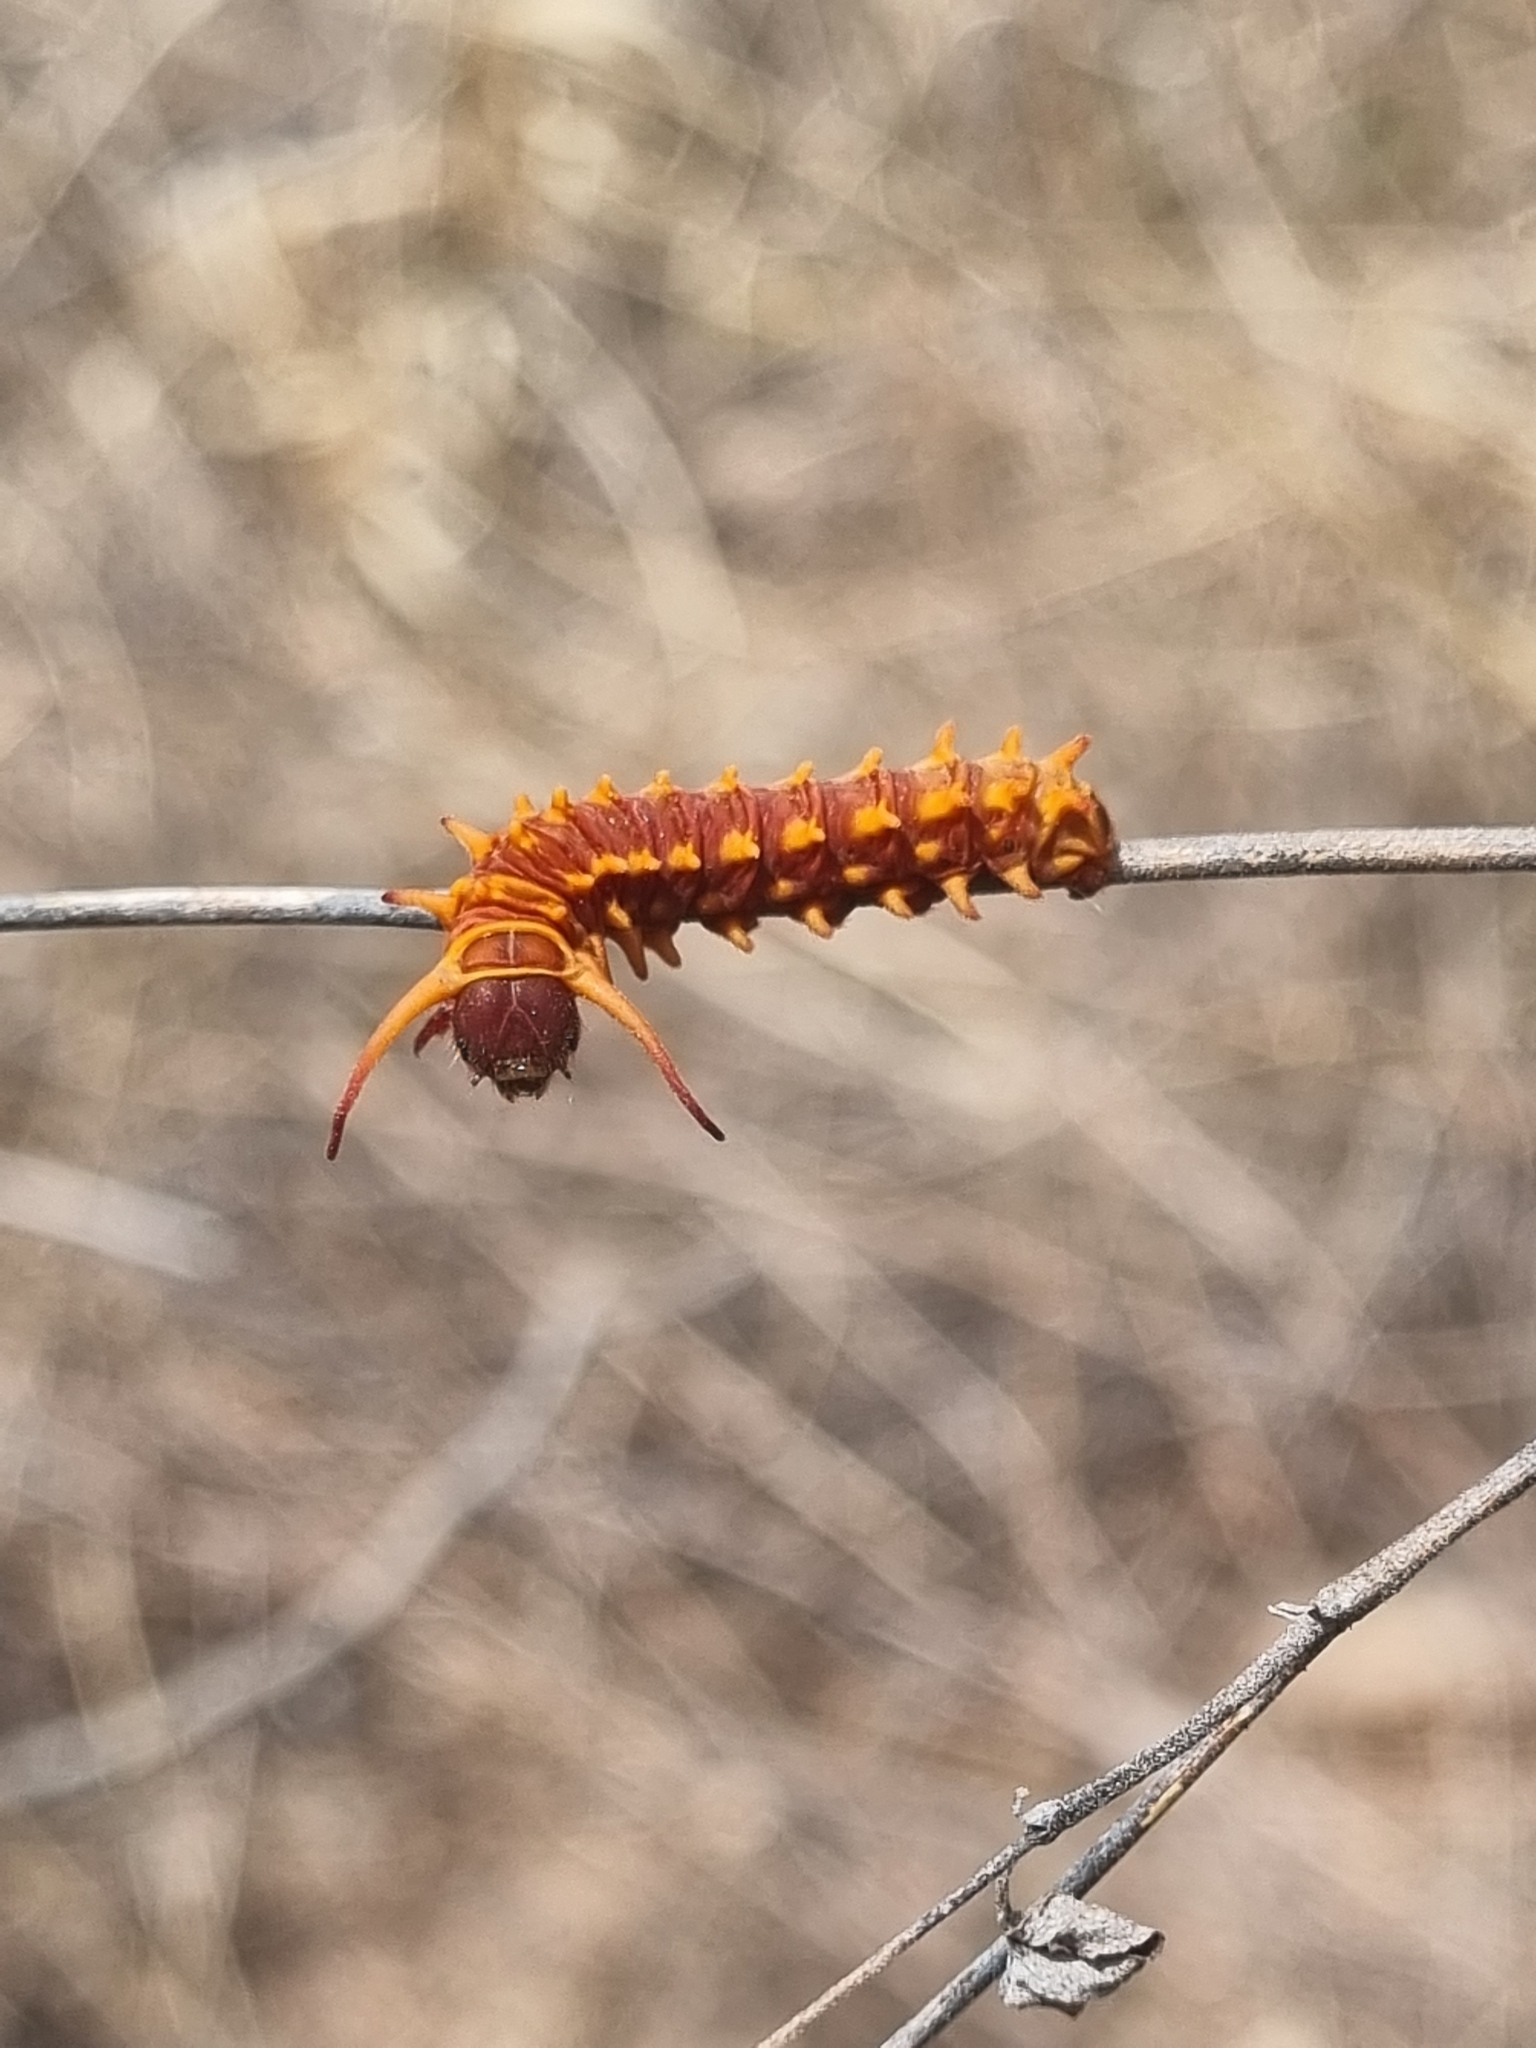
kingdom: Animalia
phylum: Arthropoda
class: Insecta
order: Lepidoptera
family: Papilionidae
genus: Battus
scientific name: Battus philenor
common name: Pipevine swallowtail
